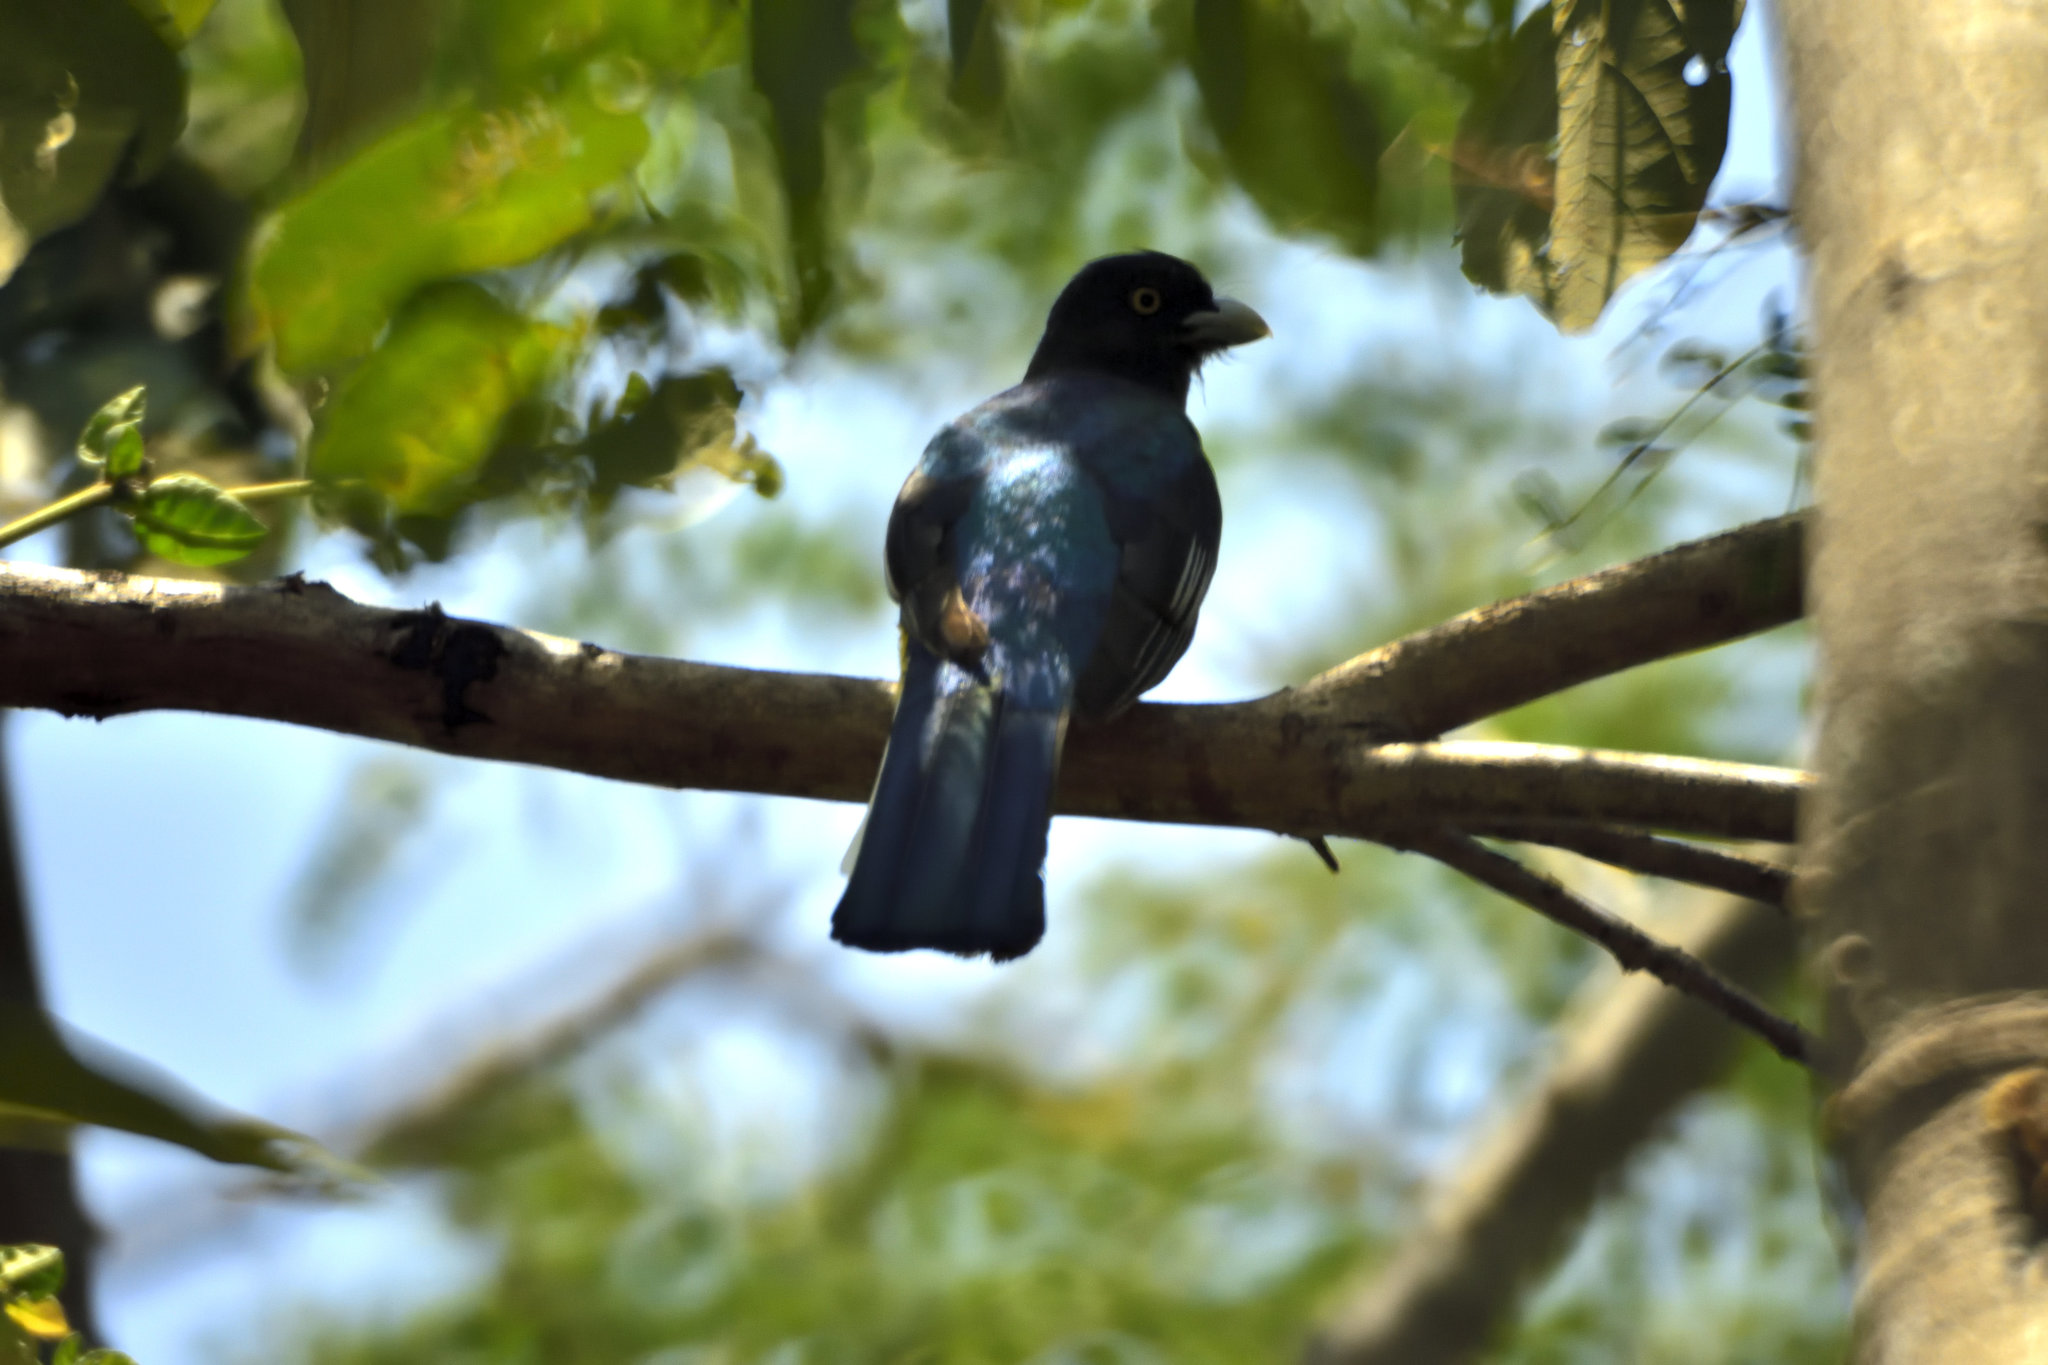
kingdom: Animalia
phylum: Chordata
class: Aves
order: Trogoniformes
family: Trogonidae
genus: Trogon
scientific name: Trogon citreolus
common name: Citreoline trogon
